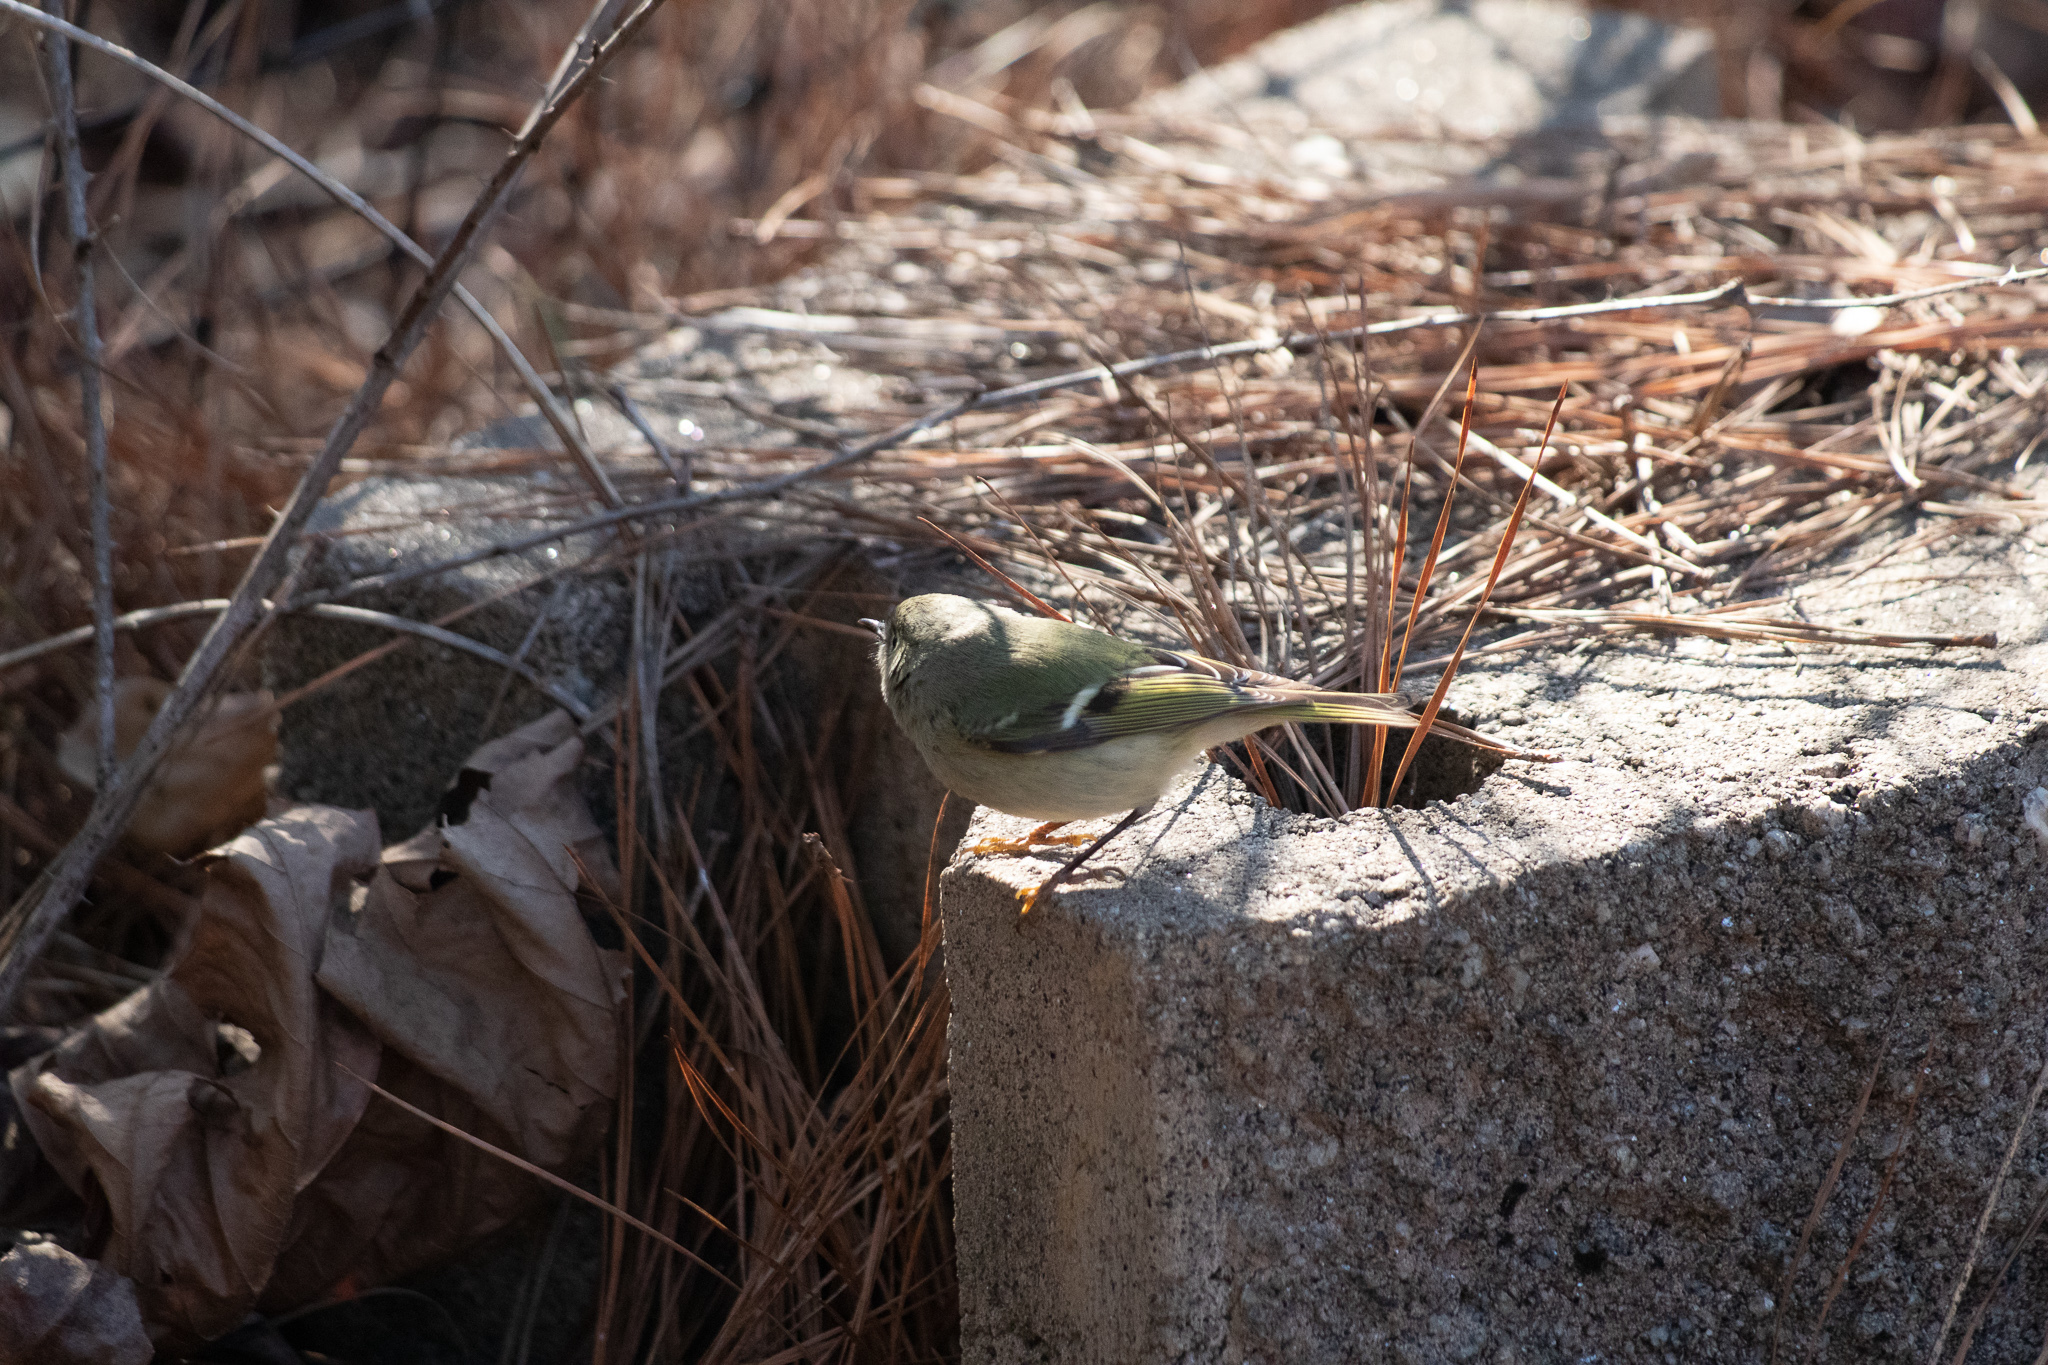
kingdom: Animalia
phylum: Chordata
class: Aves
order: Passeriformes
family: Regulidae
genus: Regulus
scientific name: Regulus calendula
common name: Ruby-crowned kinglet
